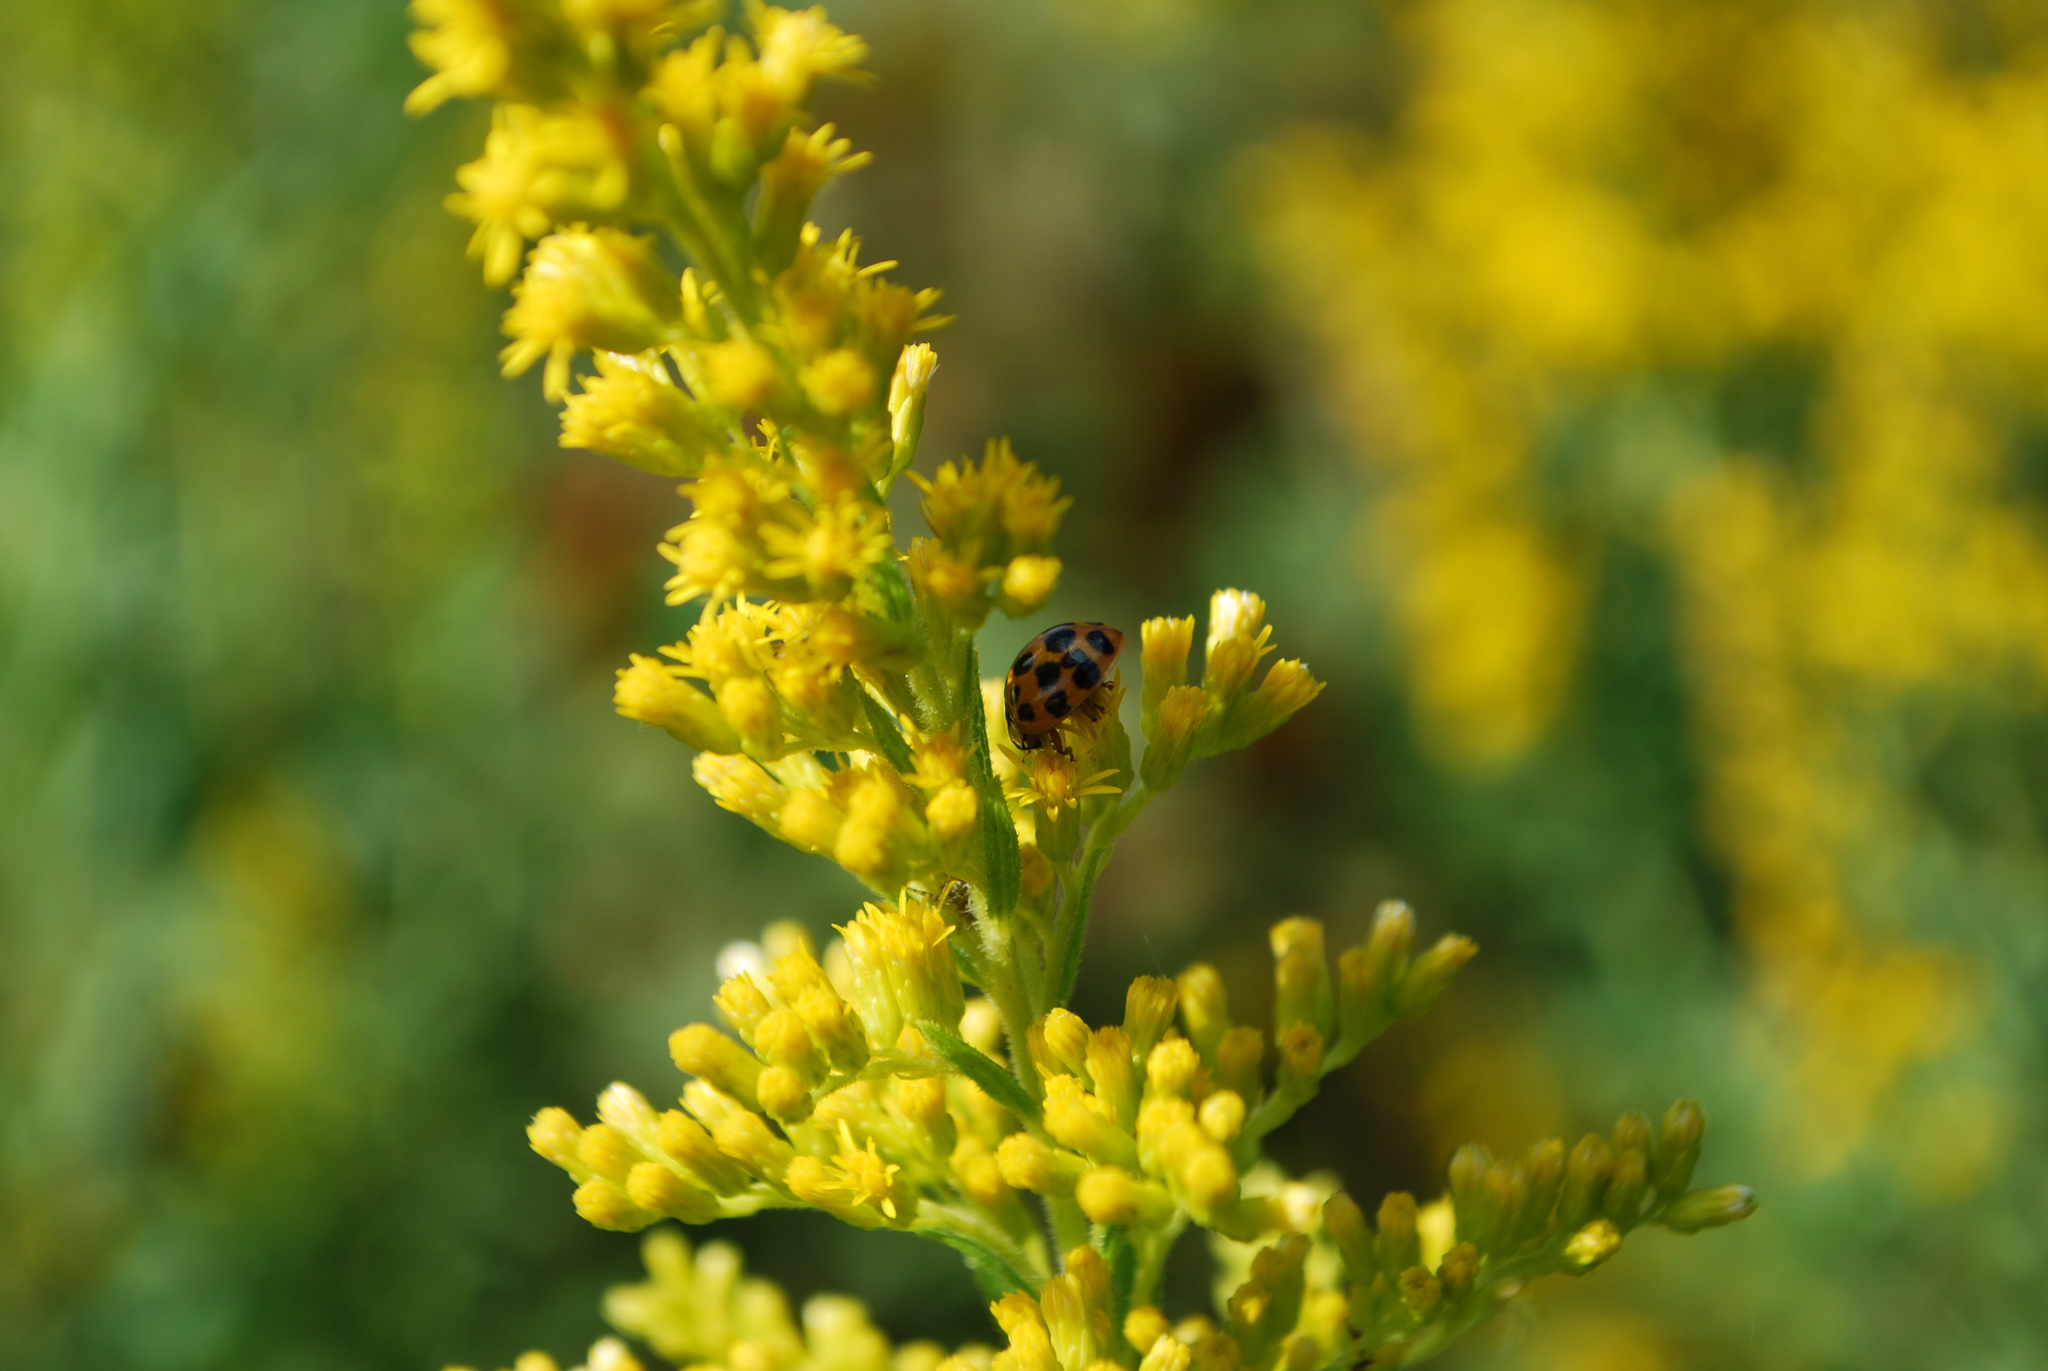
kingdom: Animalia
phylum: Arthropoda
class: Insecta
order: Coleoptera
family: Coccinellidae
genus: Harmonia
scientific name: Harmonia axyridis
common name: Harlequin ladybird
